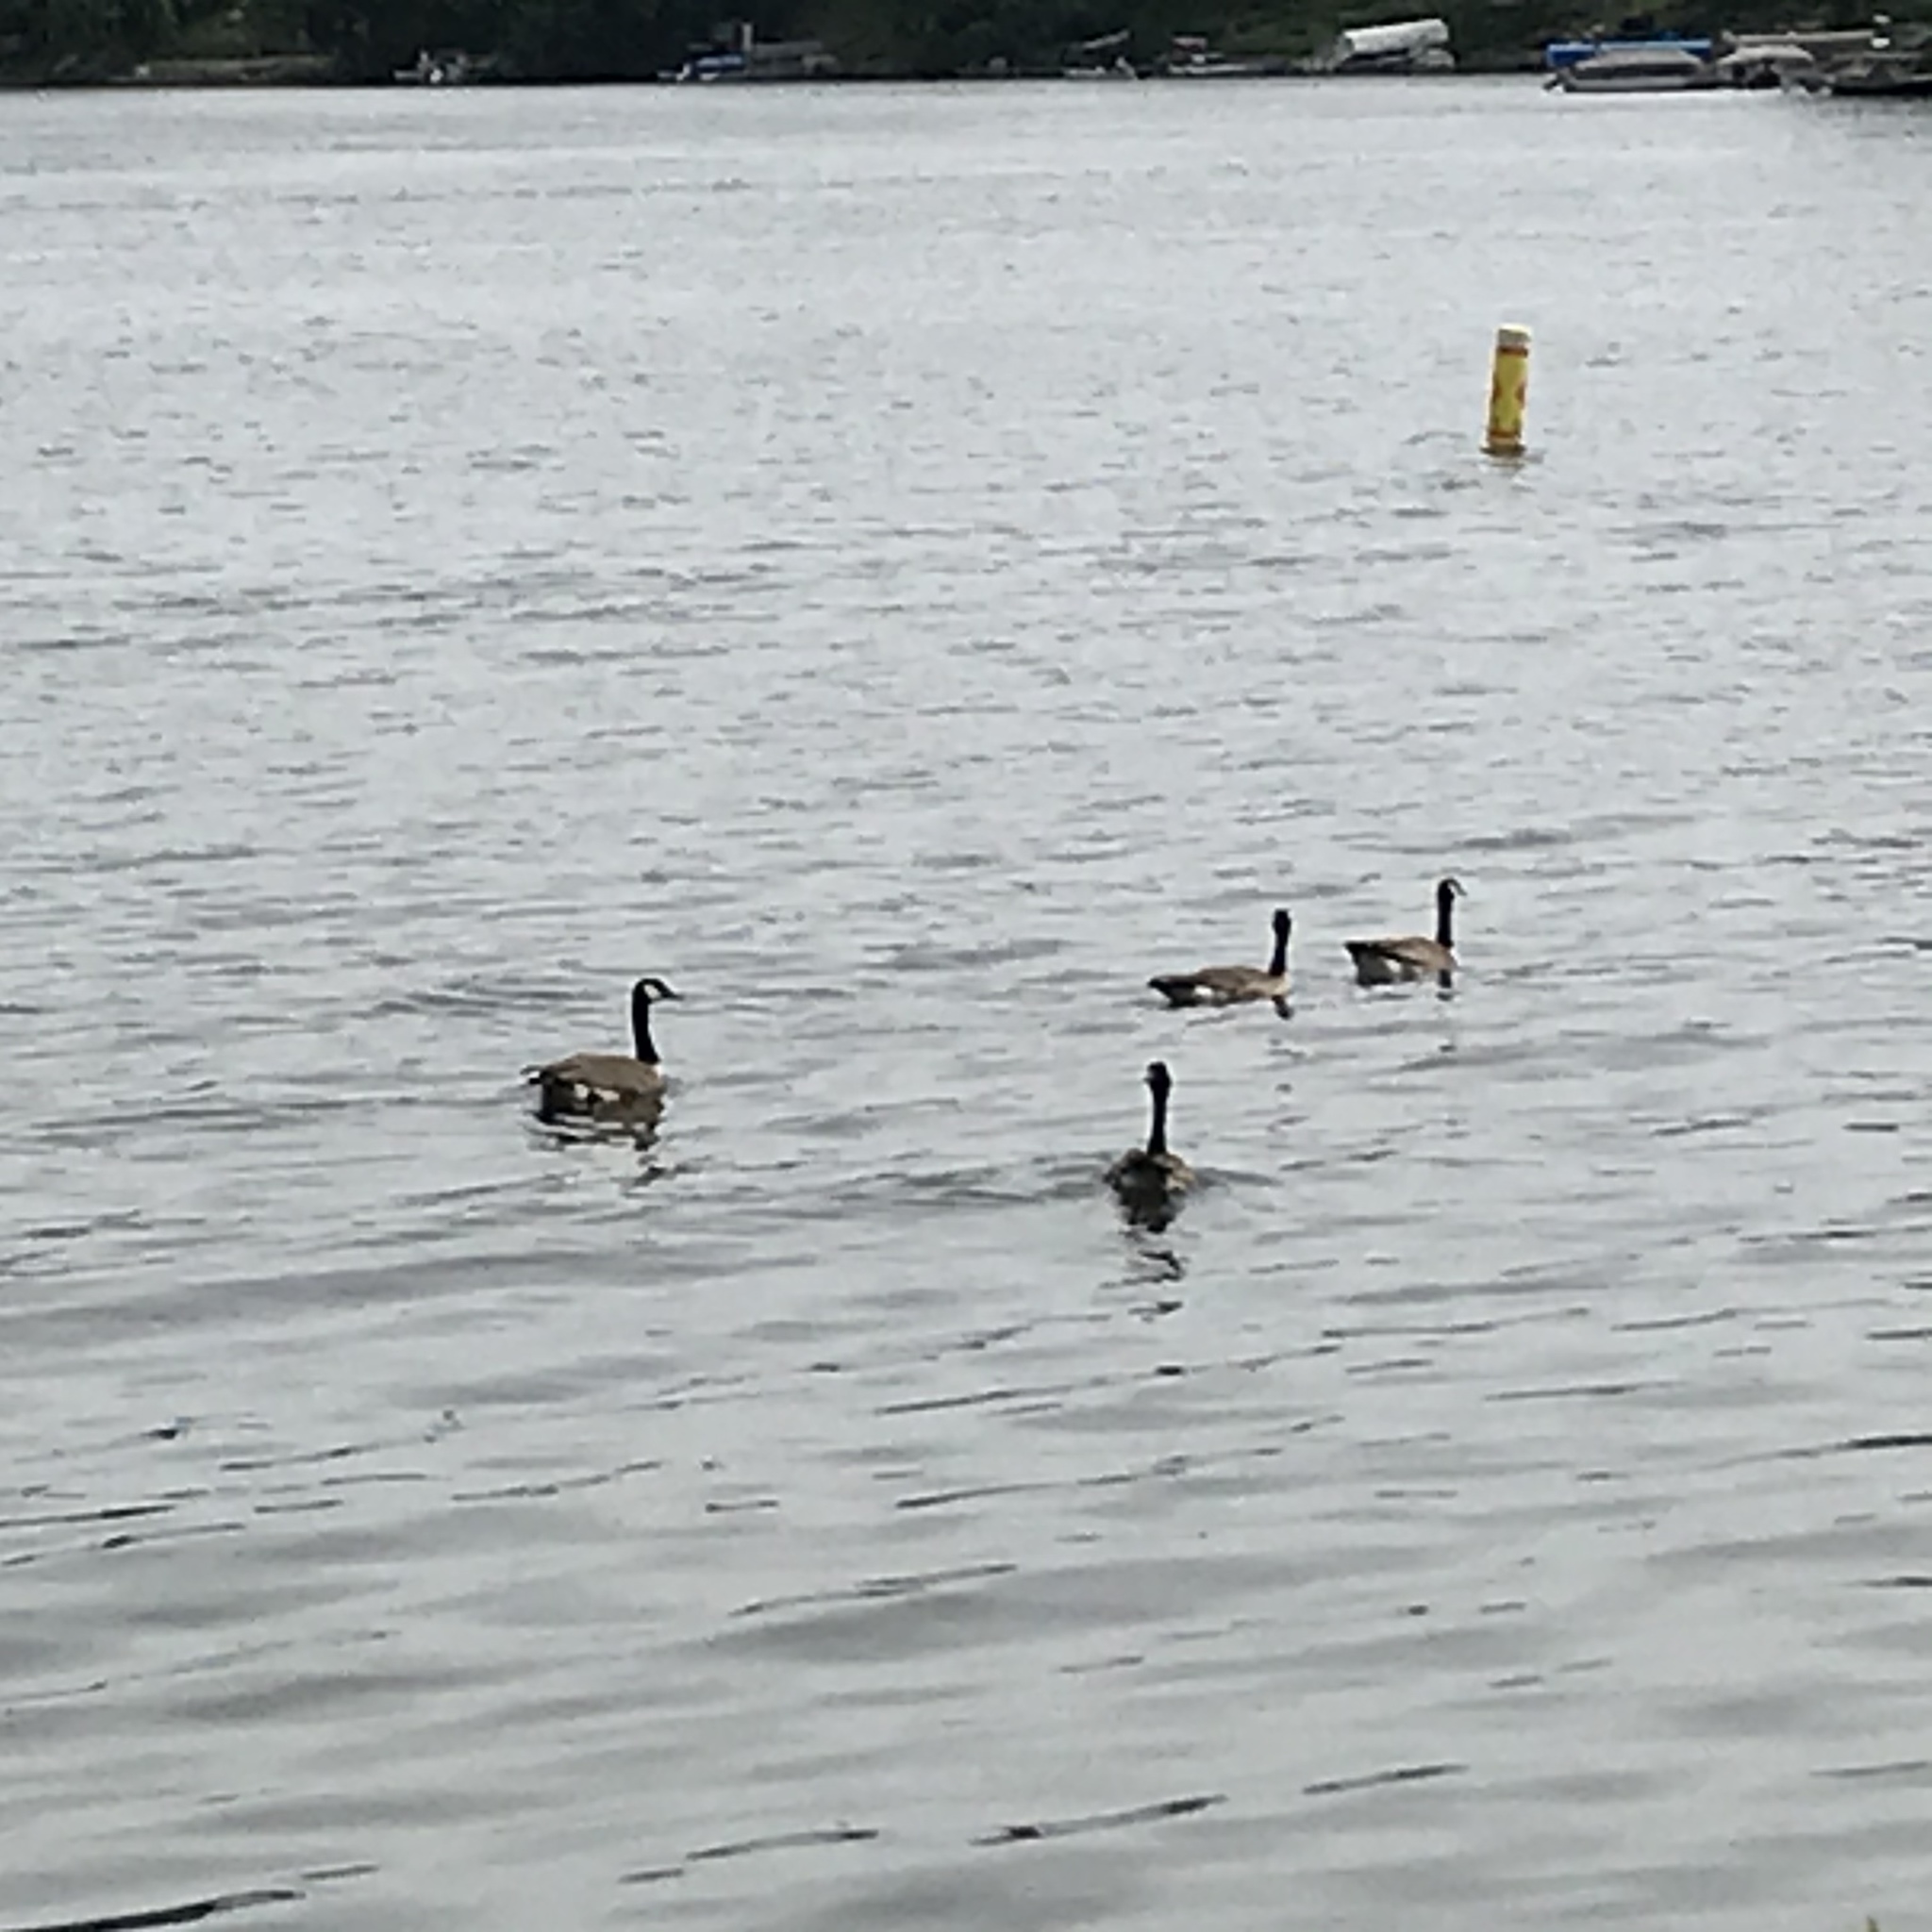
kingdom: Animalia
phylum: Chordata
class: Aves
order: Anseriformes
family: Anatidae
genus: Branta
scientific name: Branta canadensis
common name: Canada goose
